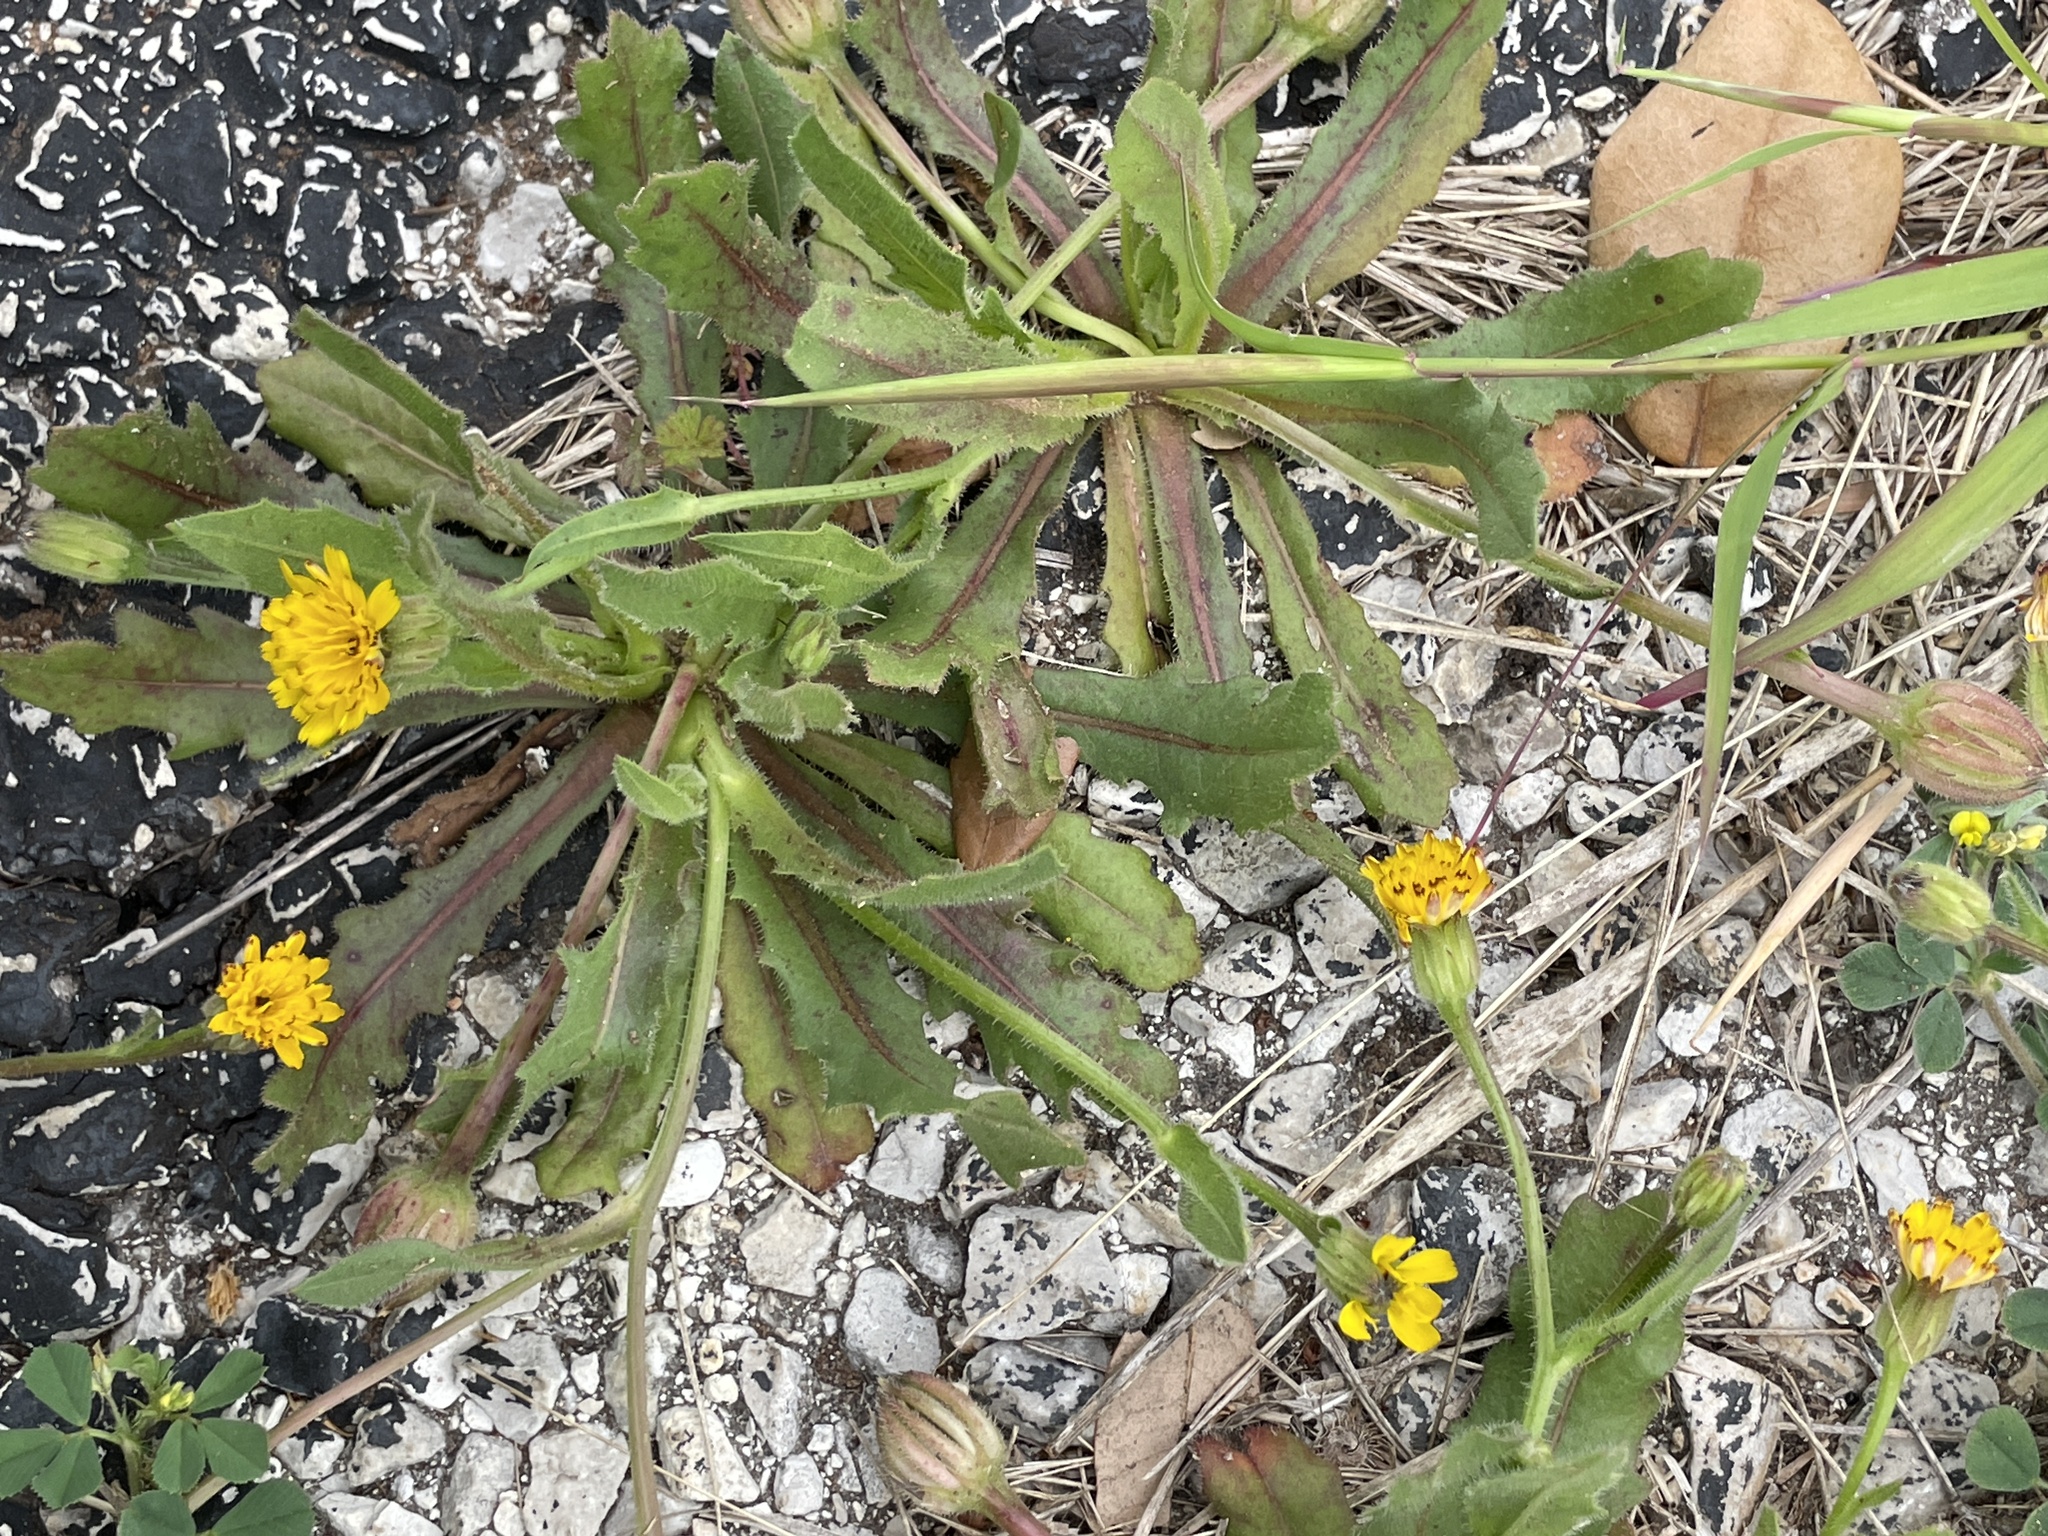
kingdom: Plantae
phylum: Tracheophyta
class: Magnoliopsida
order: Asterales
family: Asteraceae
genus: Hedypnois
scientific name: Hedypnois rhagadioloides
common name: Cretan weed
